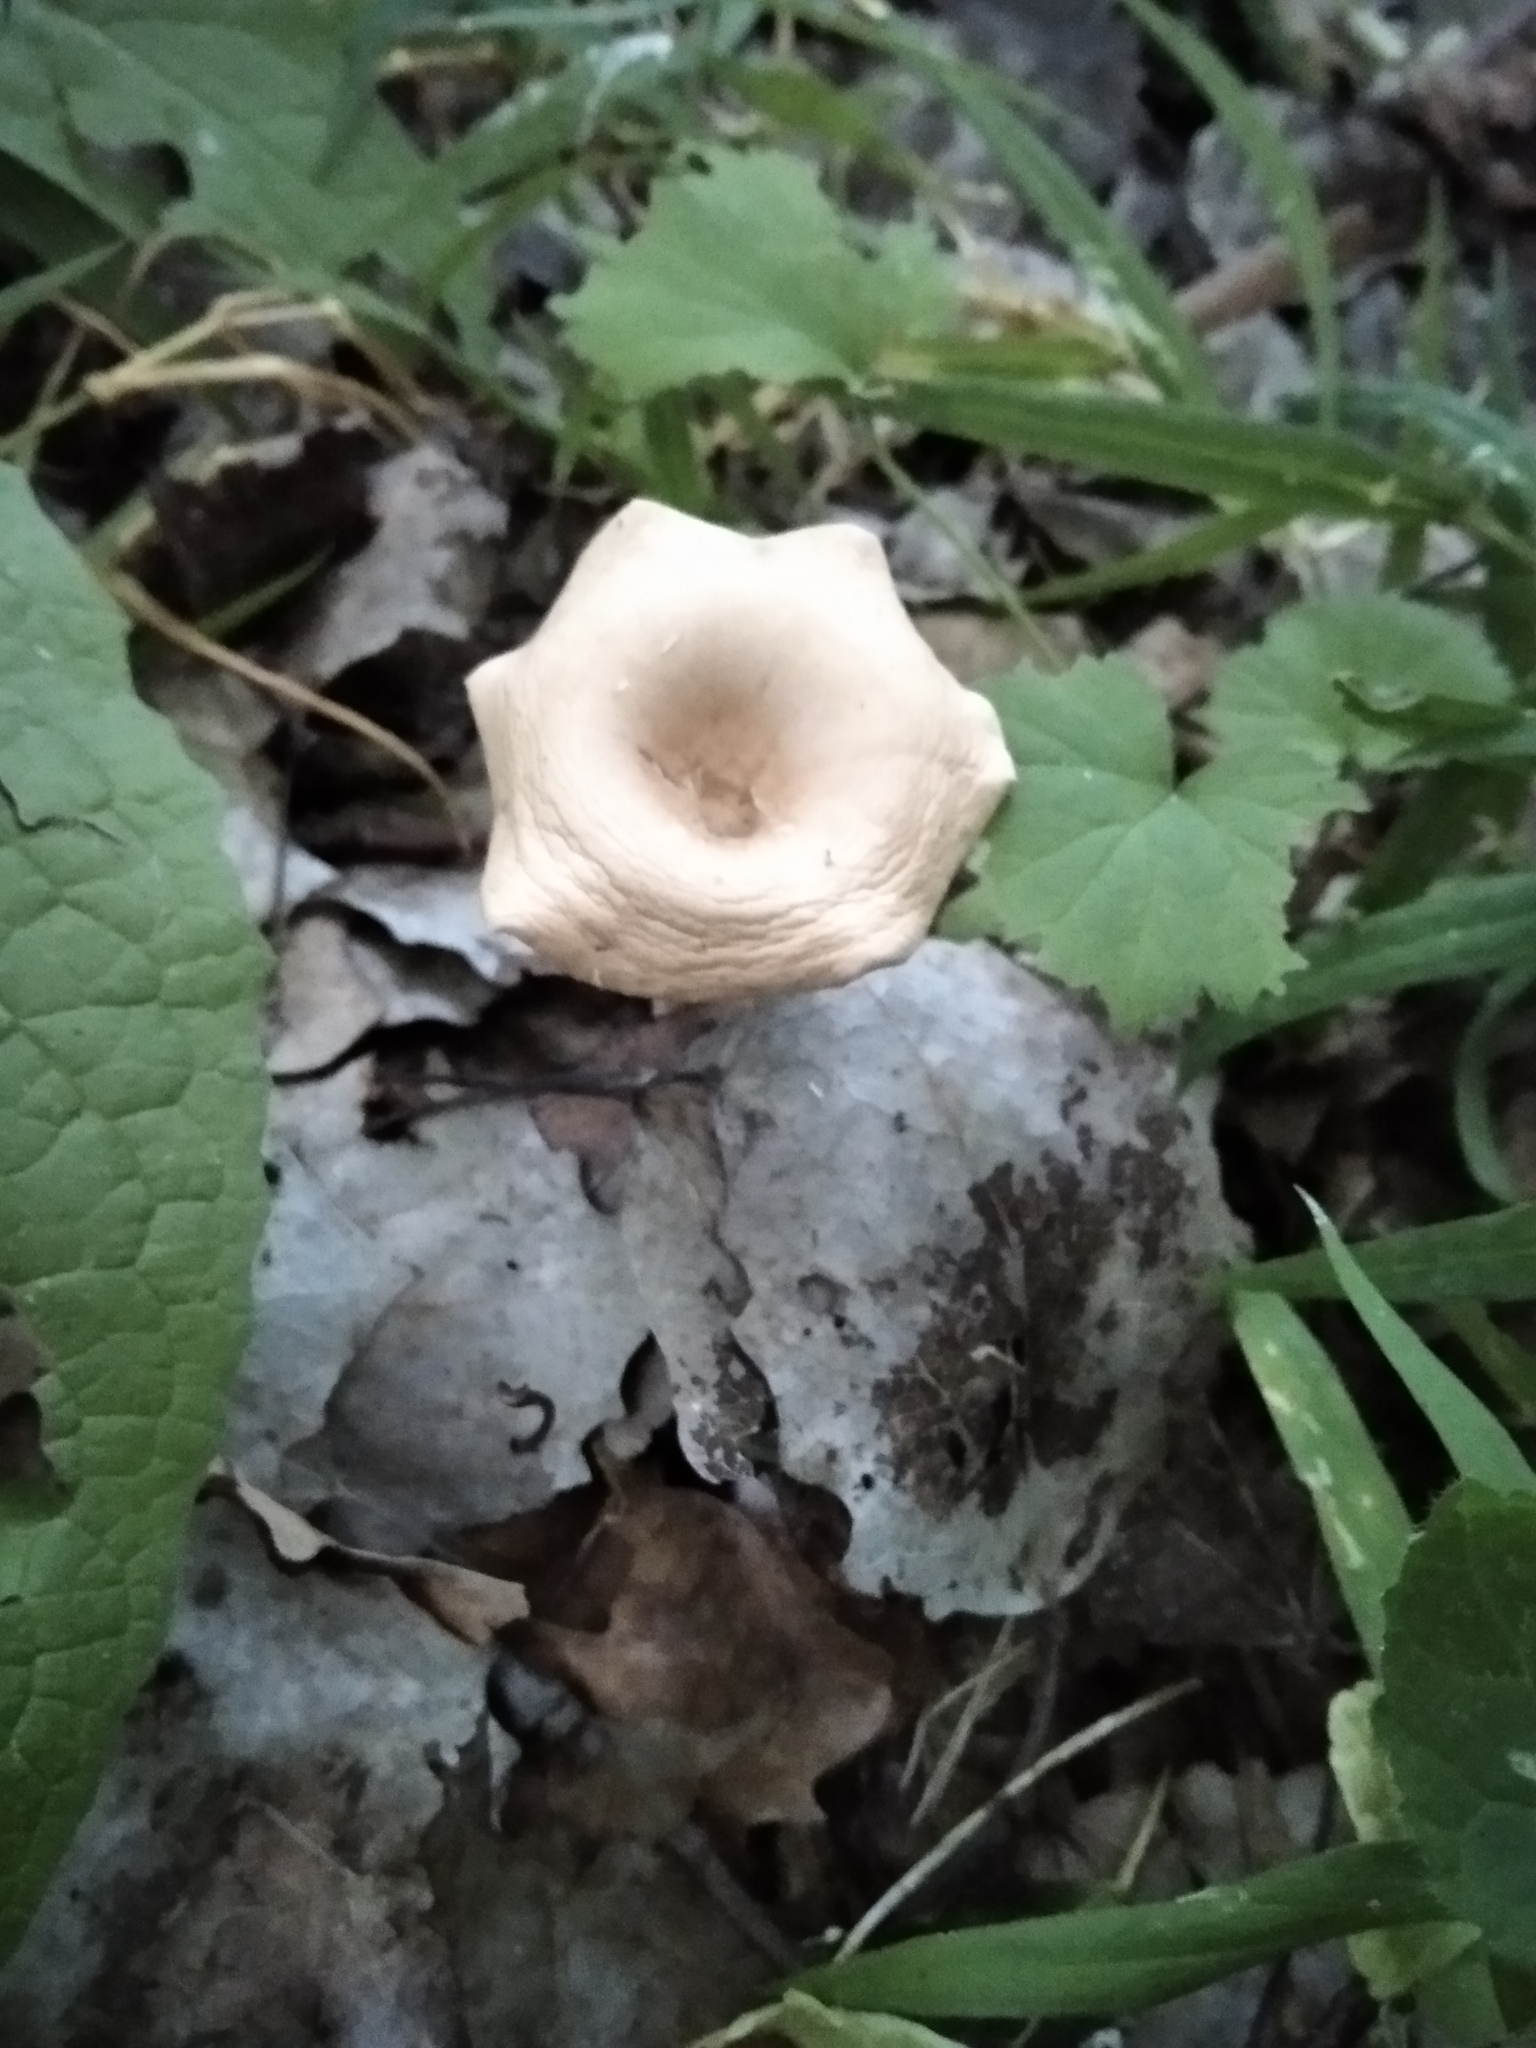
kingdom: Fungi
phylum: Basidiomycota
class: Agaricomycetes
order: Agaricales
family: Tricholomataceae
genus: Infundibulicybe
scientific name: Infundibulicybe gibba
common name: Common funnel
